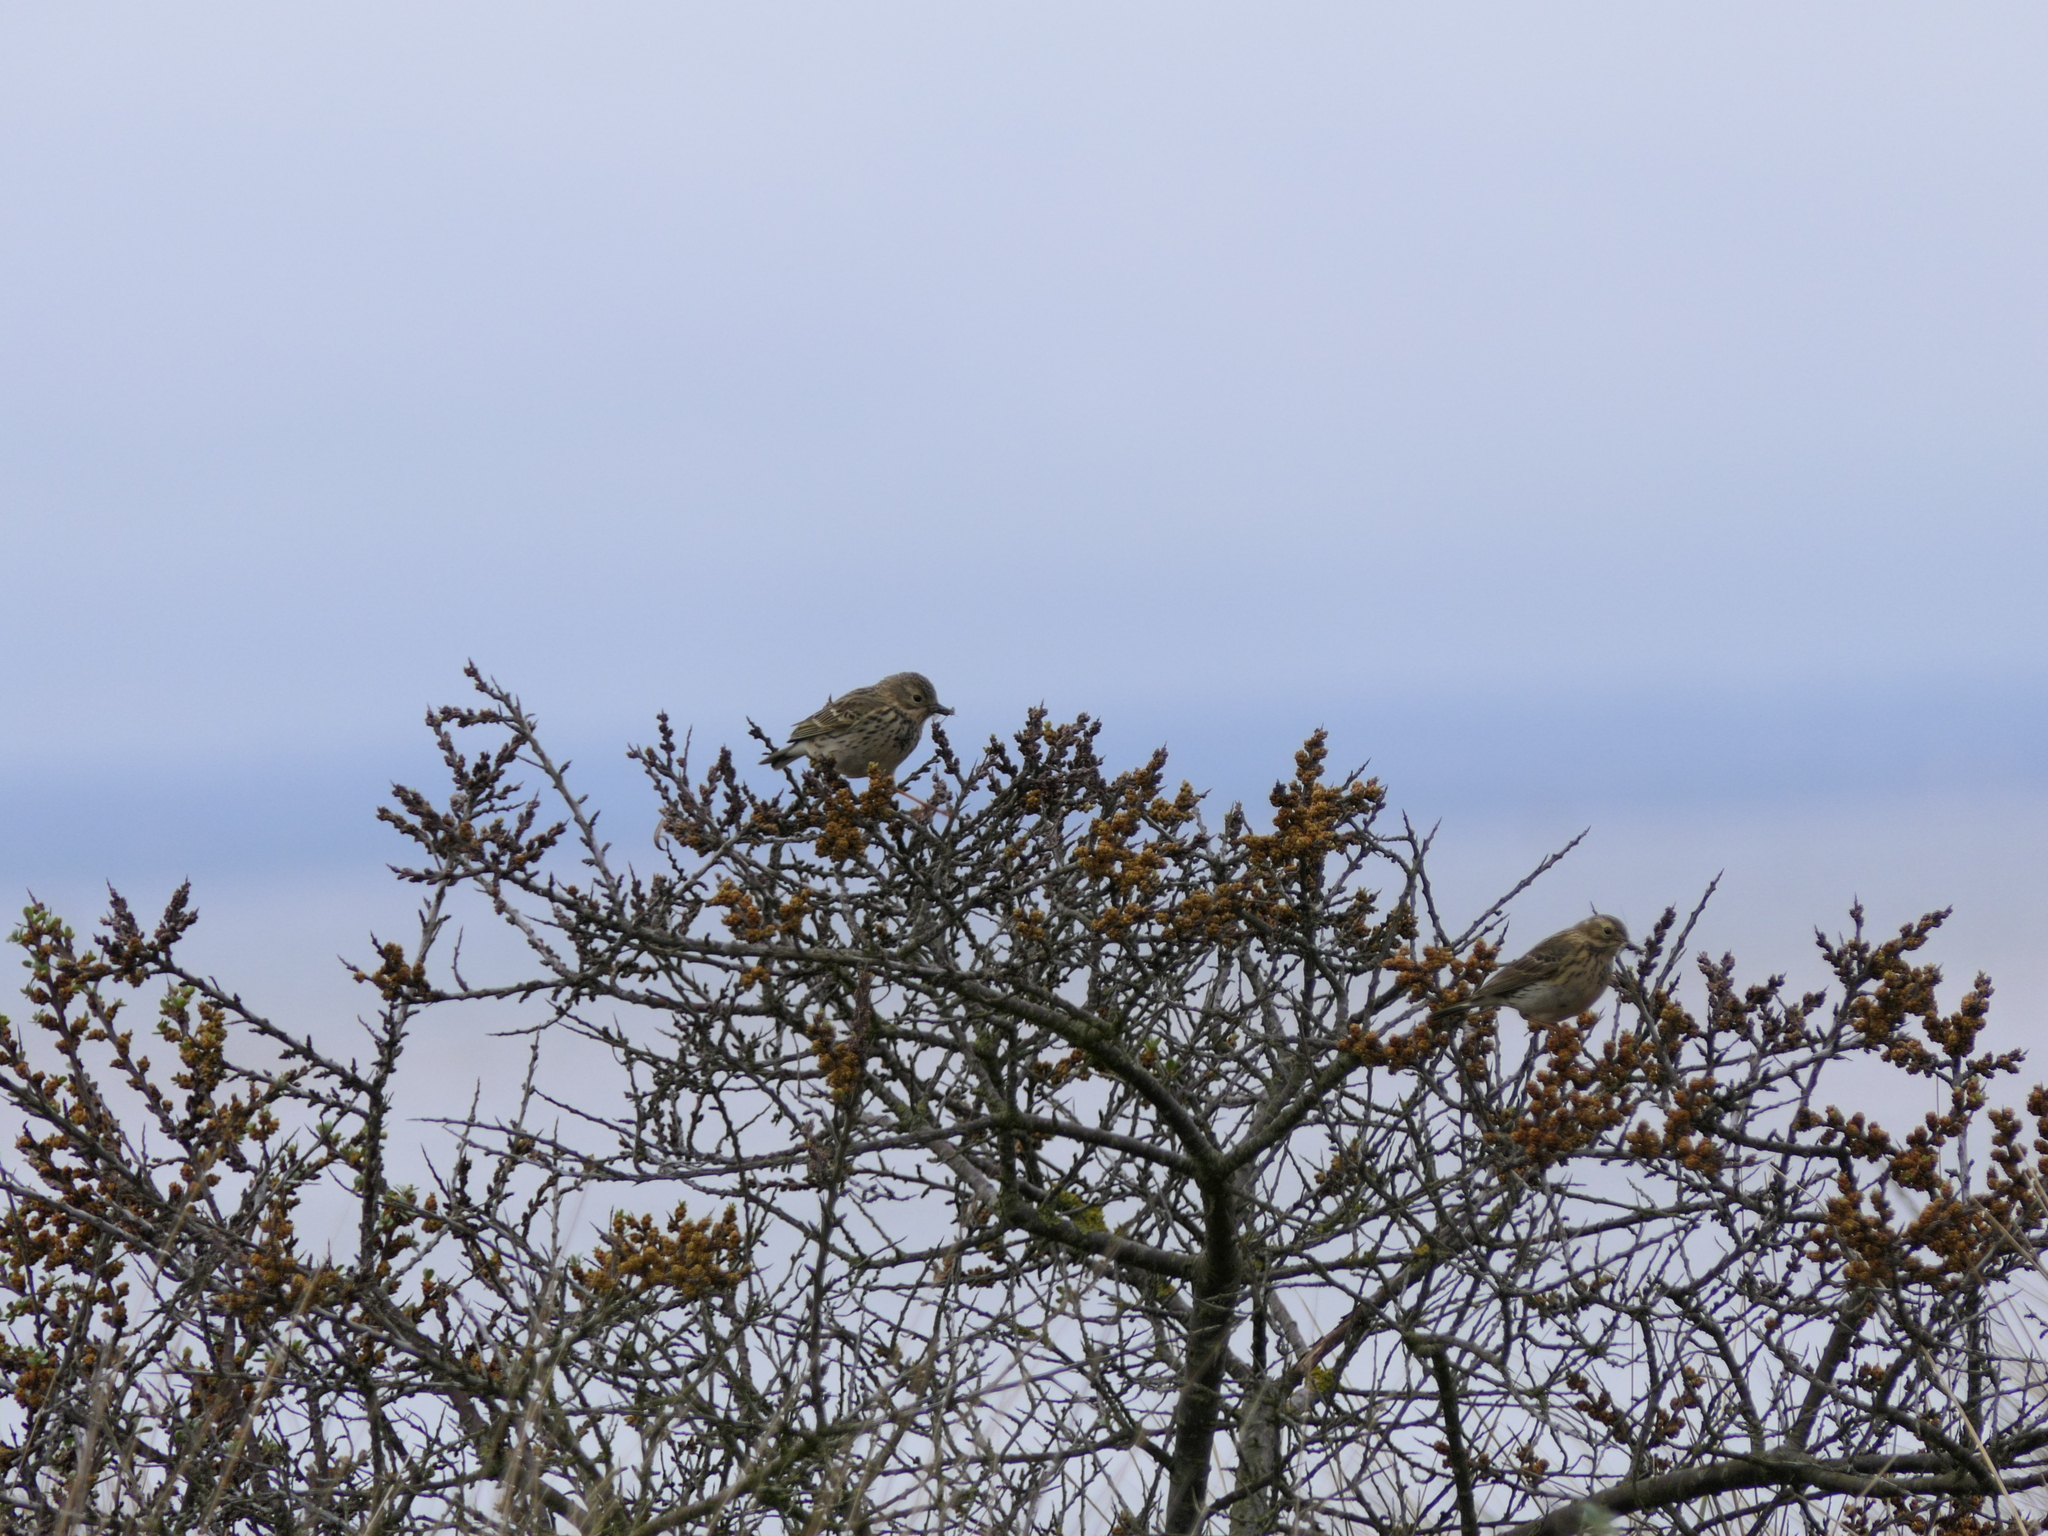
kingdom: Animalia
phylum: Chordata
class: Aves
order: Passeriformes
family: Motacillidae
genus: Anthus
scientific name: Anthus pratensis
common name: Meadow pipit
